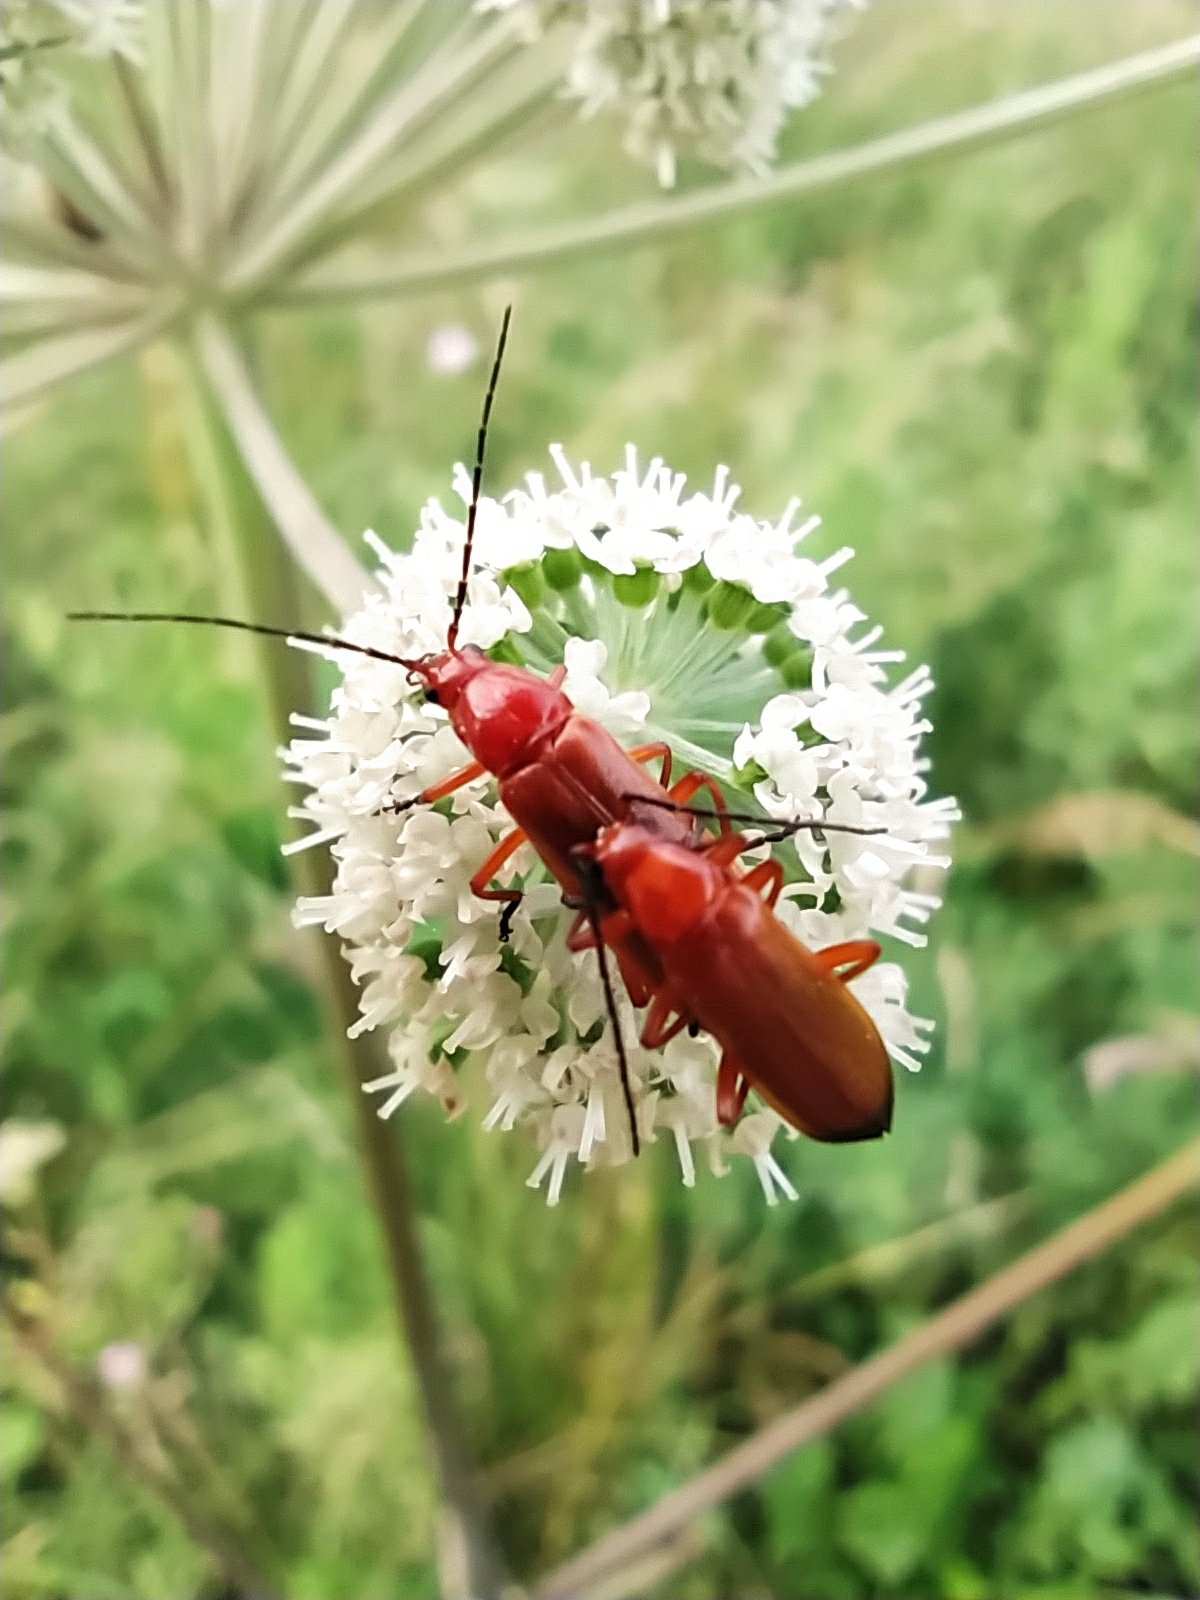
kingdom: Animalia
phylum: Arthropoda
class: Insecta
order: Coleoptera
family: Cantharidae
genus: Rhagonycha
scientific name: Rhagonycha fulva
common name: Common red soldier beetle
